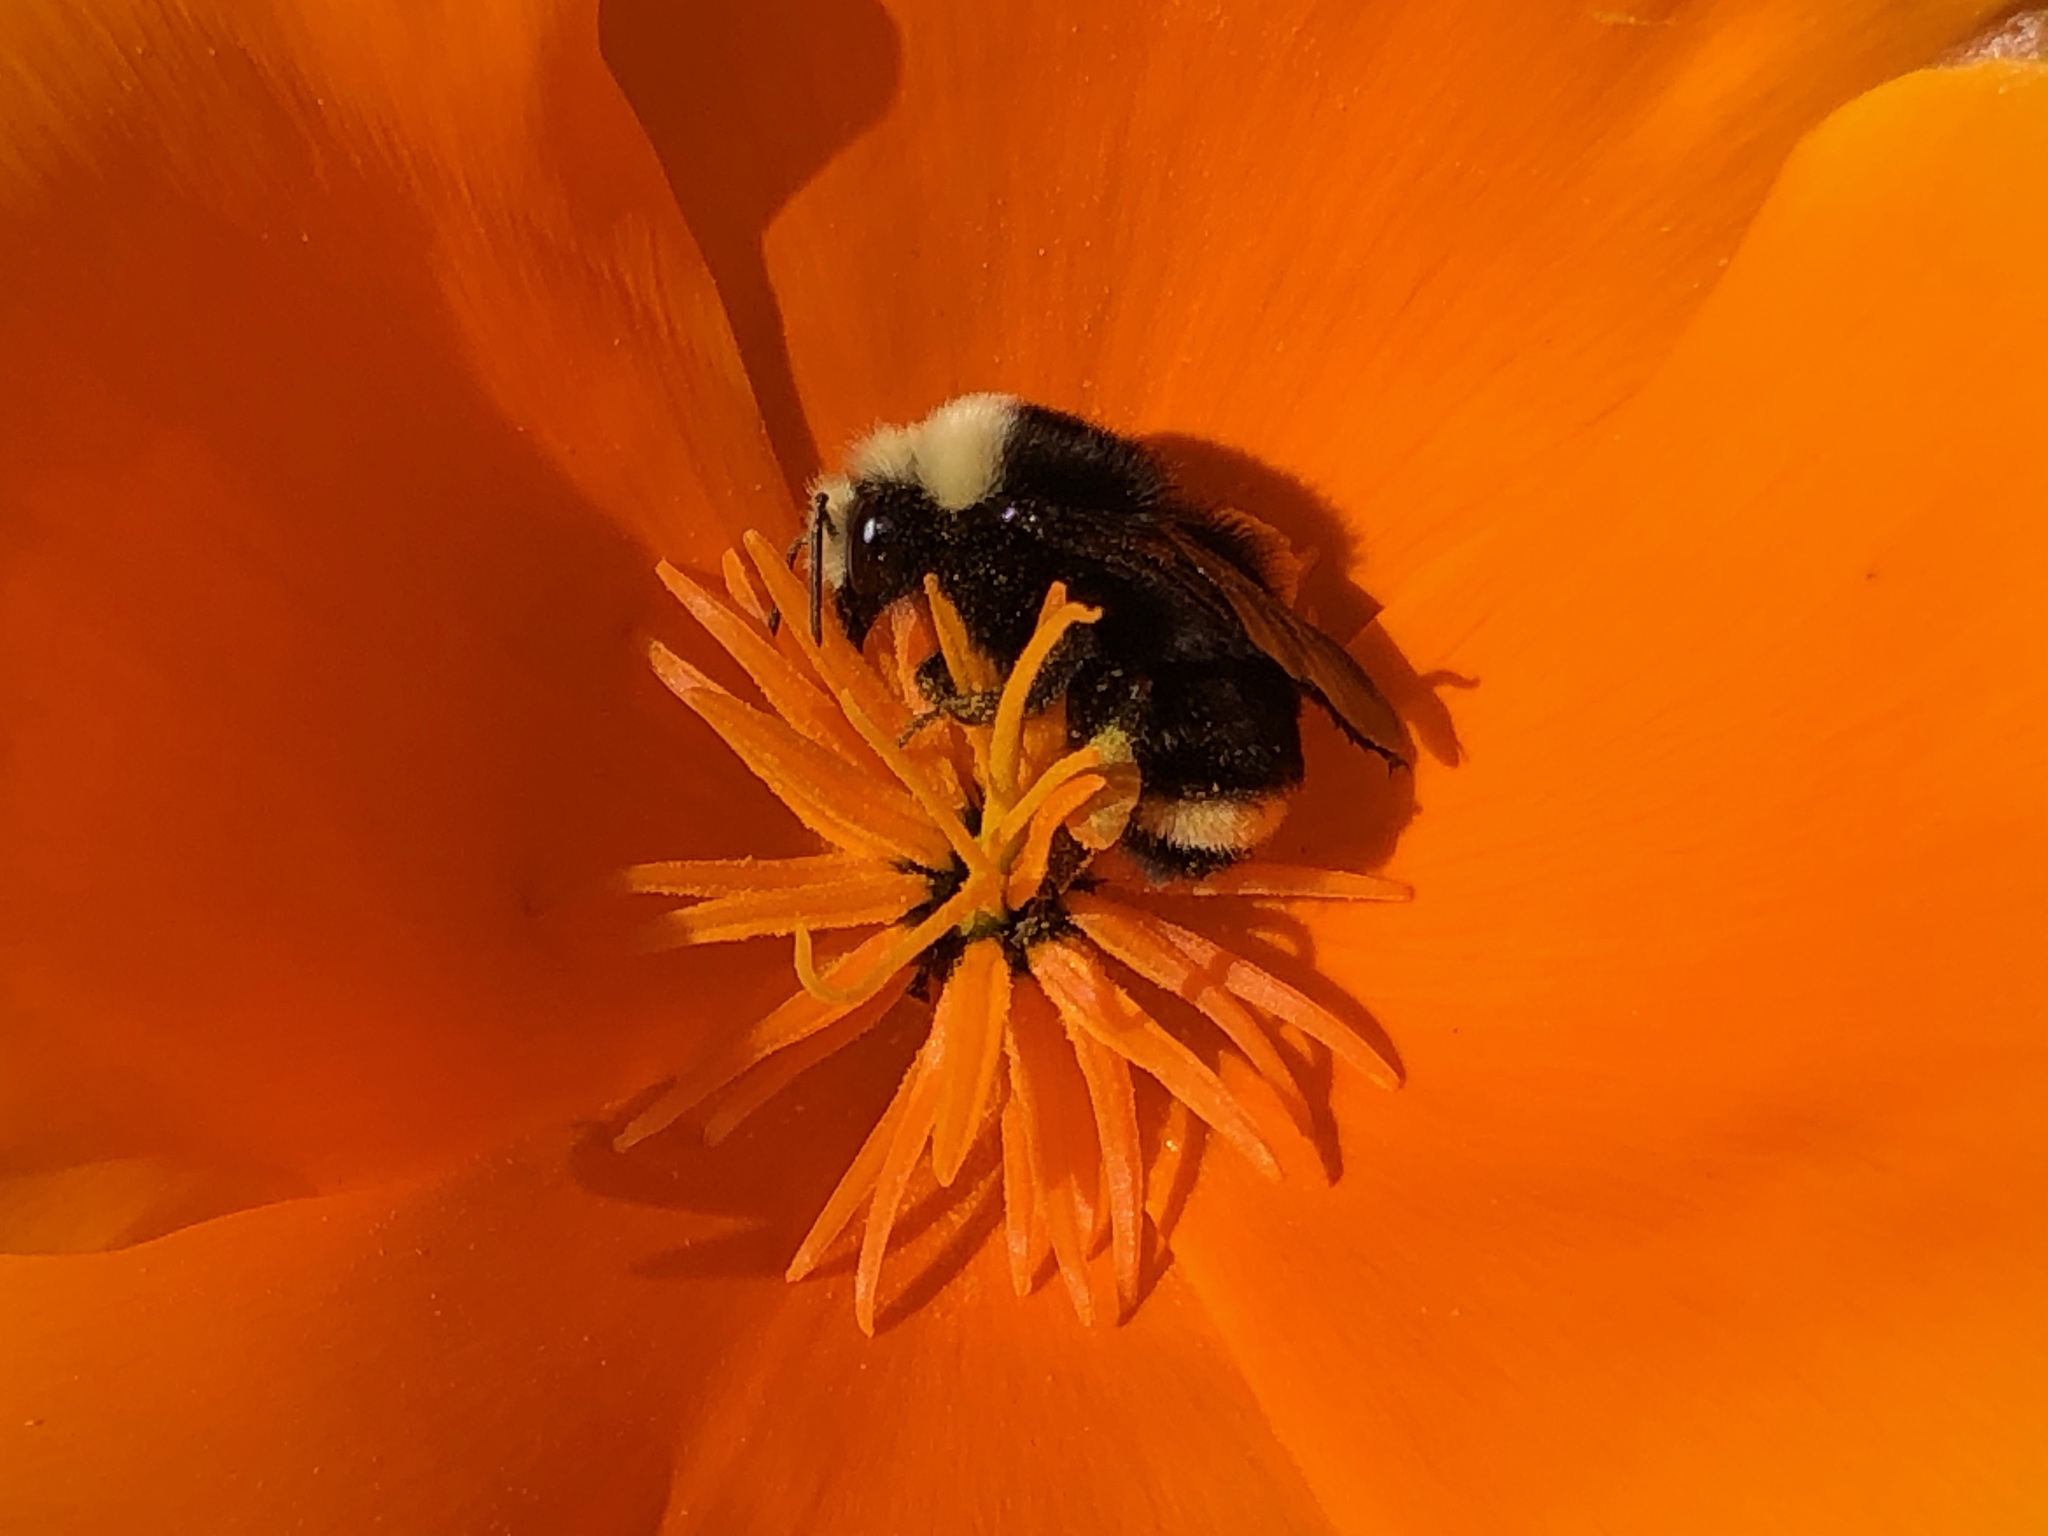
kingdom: Animalia
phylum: Arthropoda
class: Insecta
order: Hymenoptera
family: Apidae
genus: Bombus
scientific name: Bombus vosnesenskii
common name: Vosnesensky bumble bee
